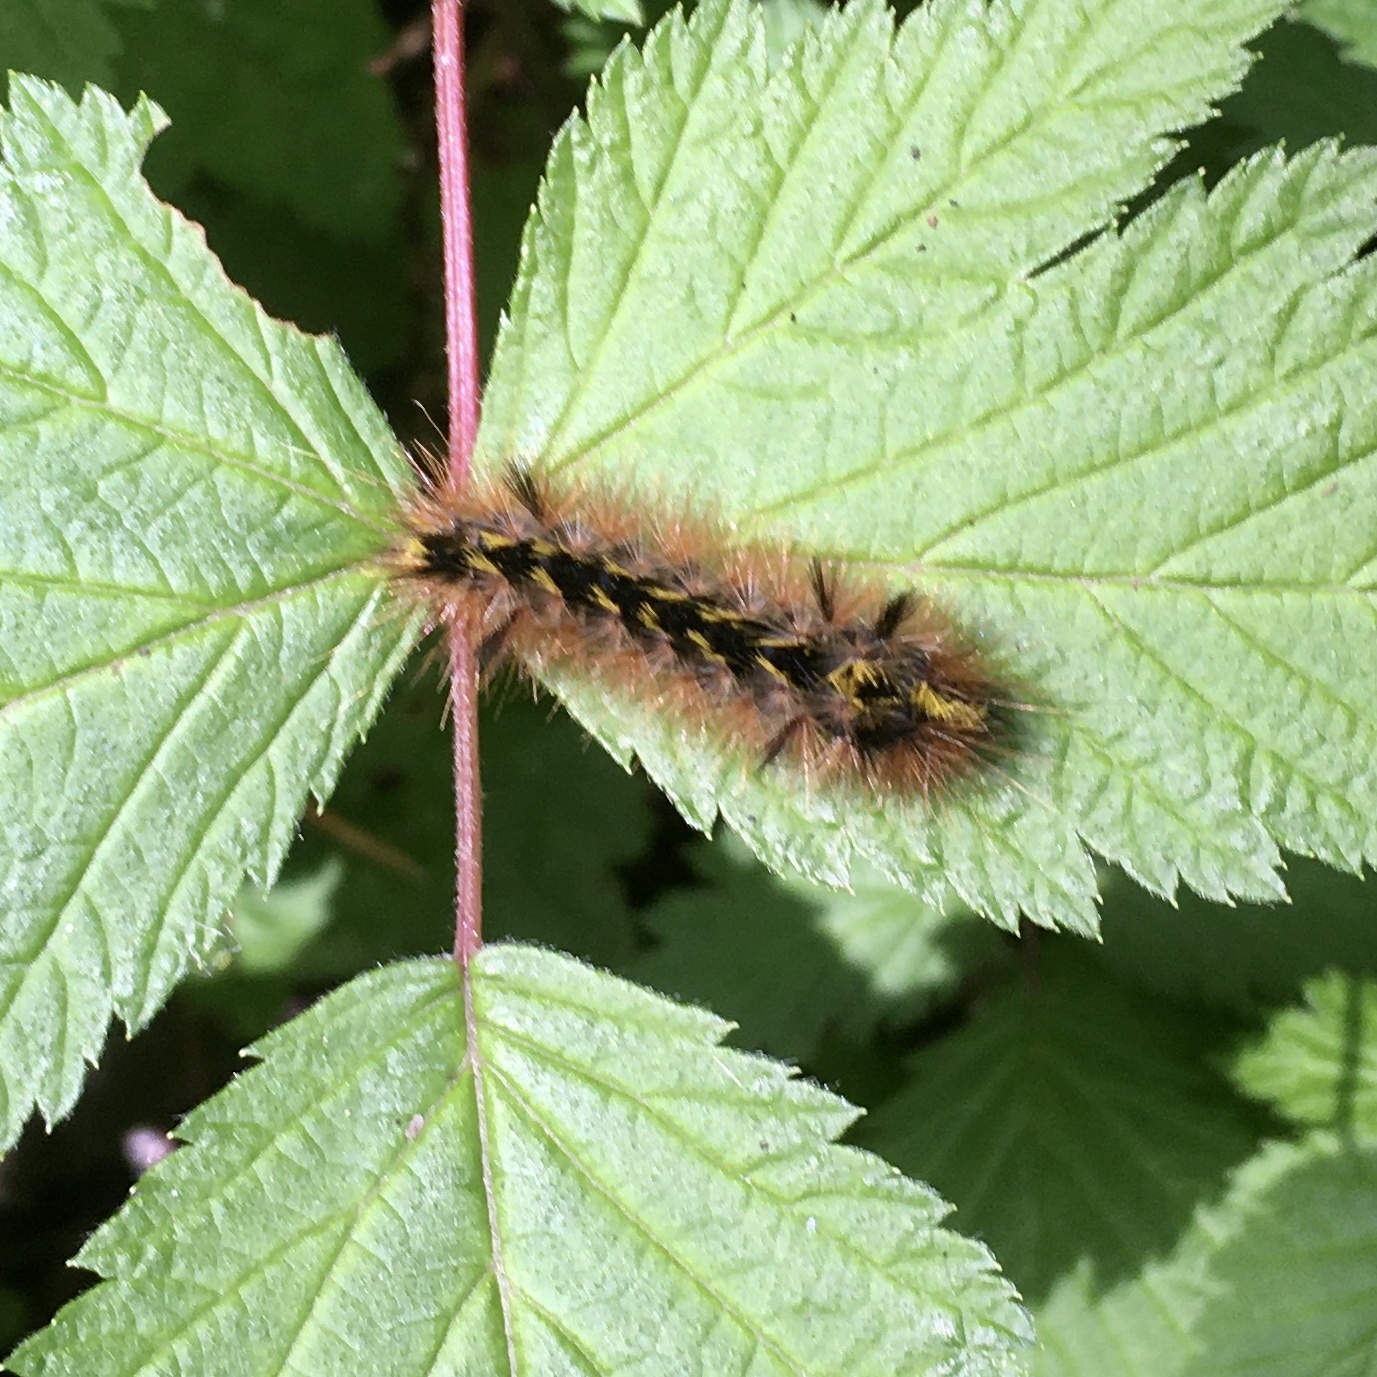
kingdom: Animalia
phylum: Arthropoda
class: Insecta
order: Lepidoptera
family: Erebidae
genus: Lophocampa
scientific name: Lophocampa argentata
